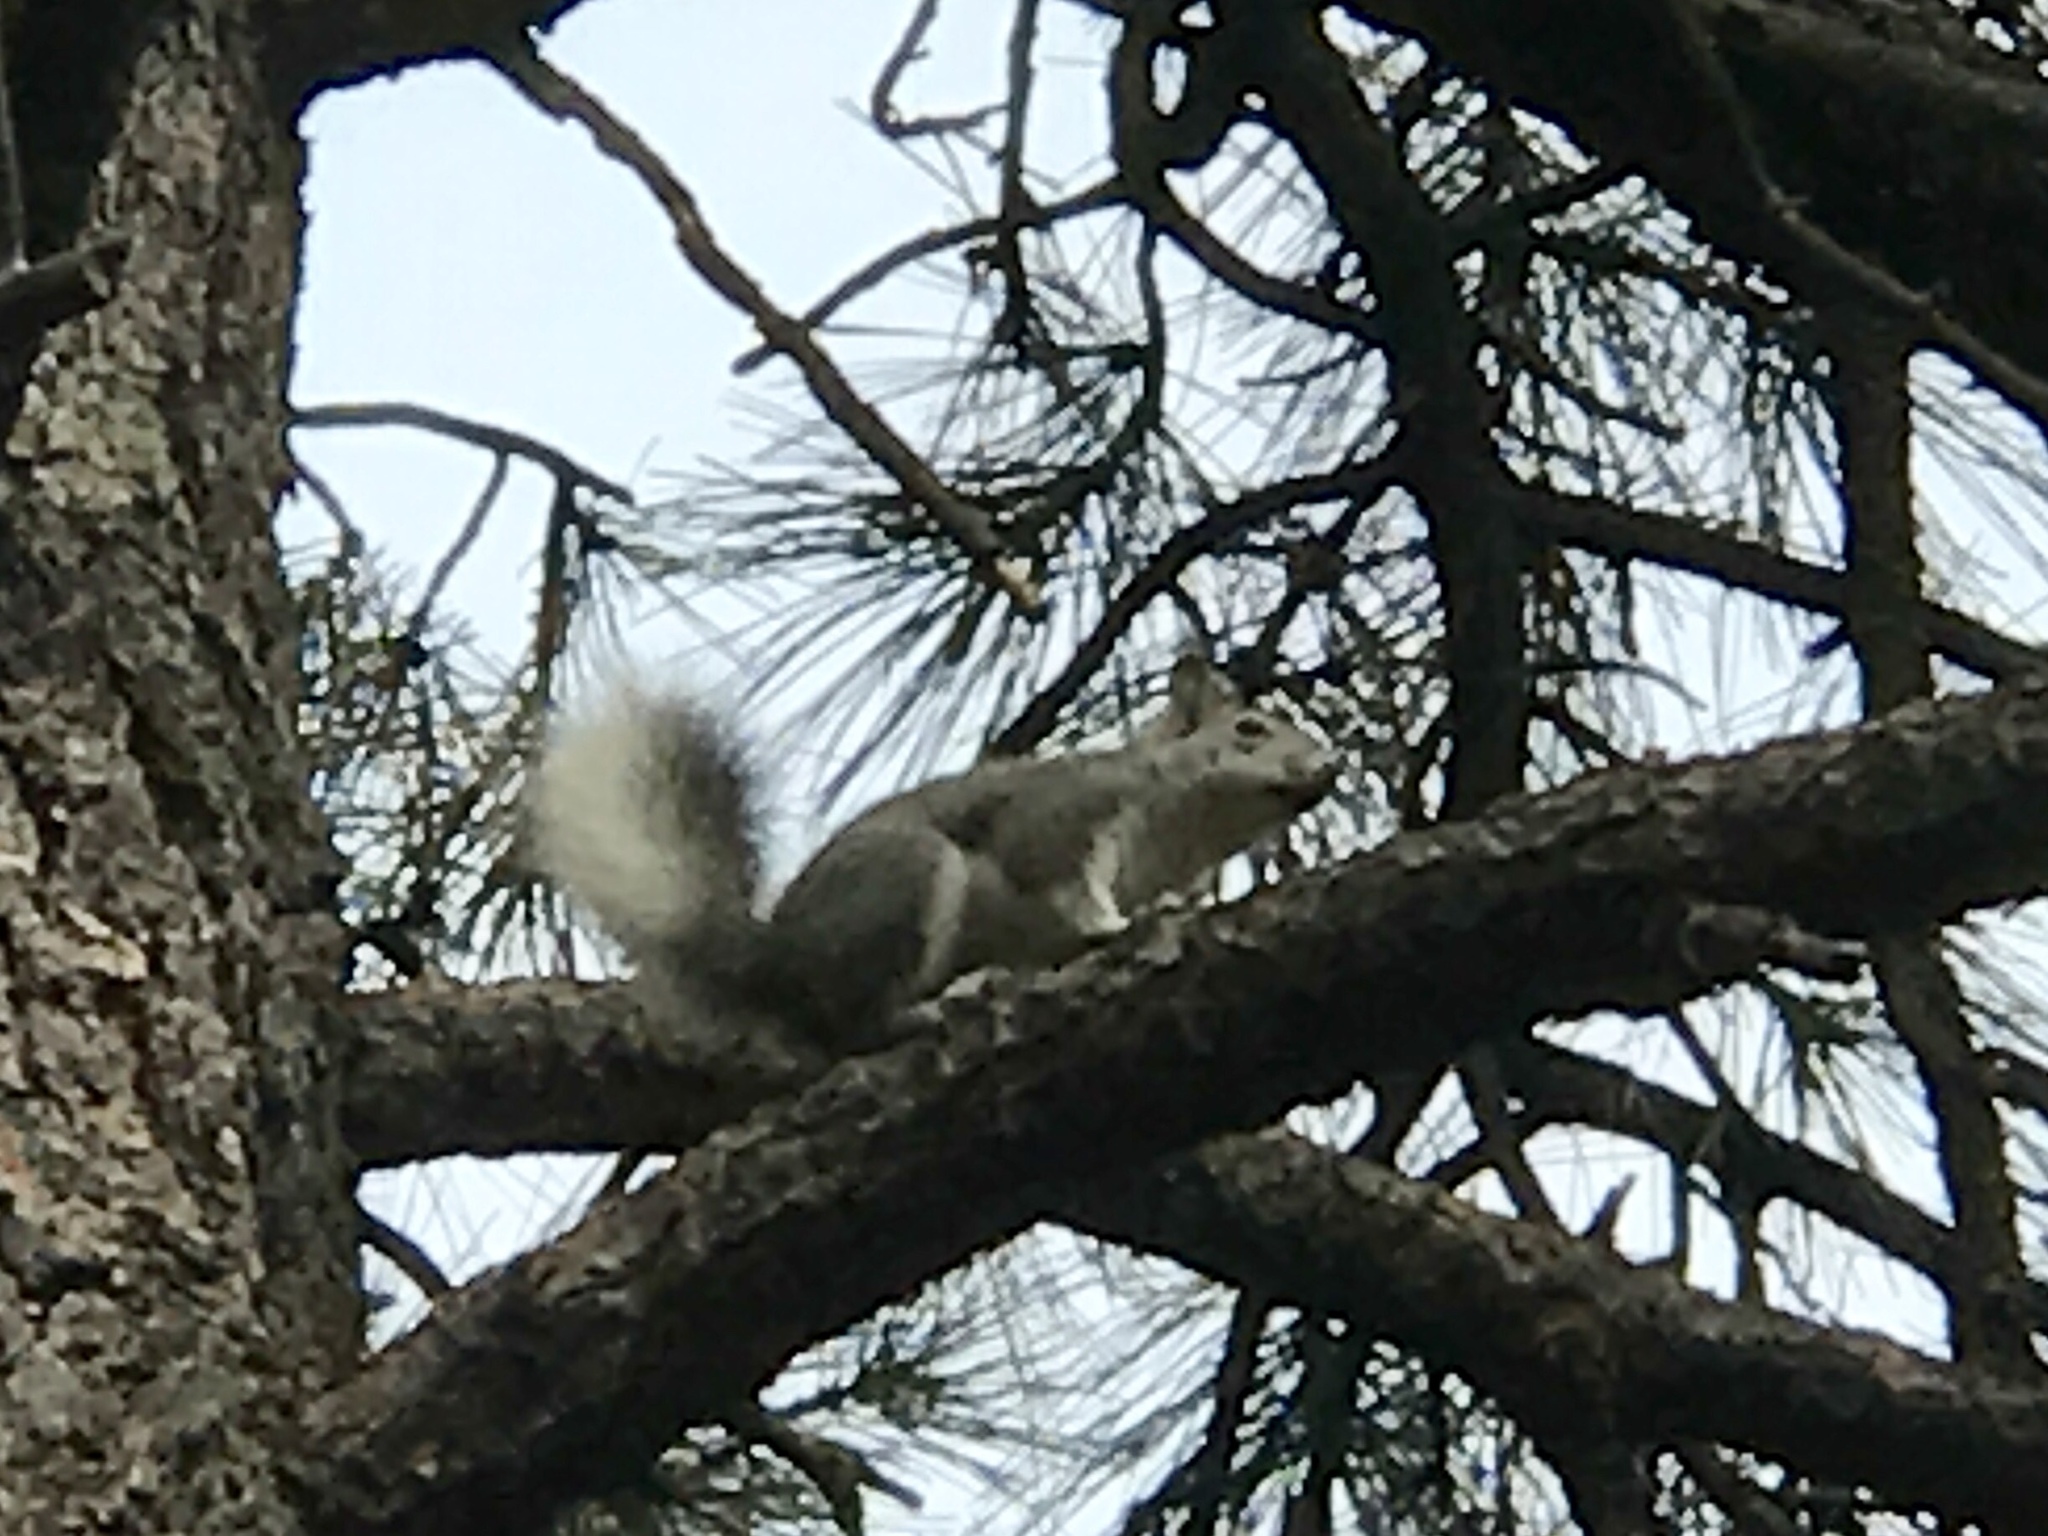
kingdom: Animalia
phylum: Chordata
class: Mammalia
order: Rodentia
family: Sciuridae
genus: Sciurus
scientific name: Sciurus aberti
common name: Abert's squirrel
